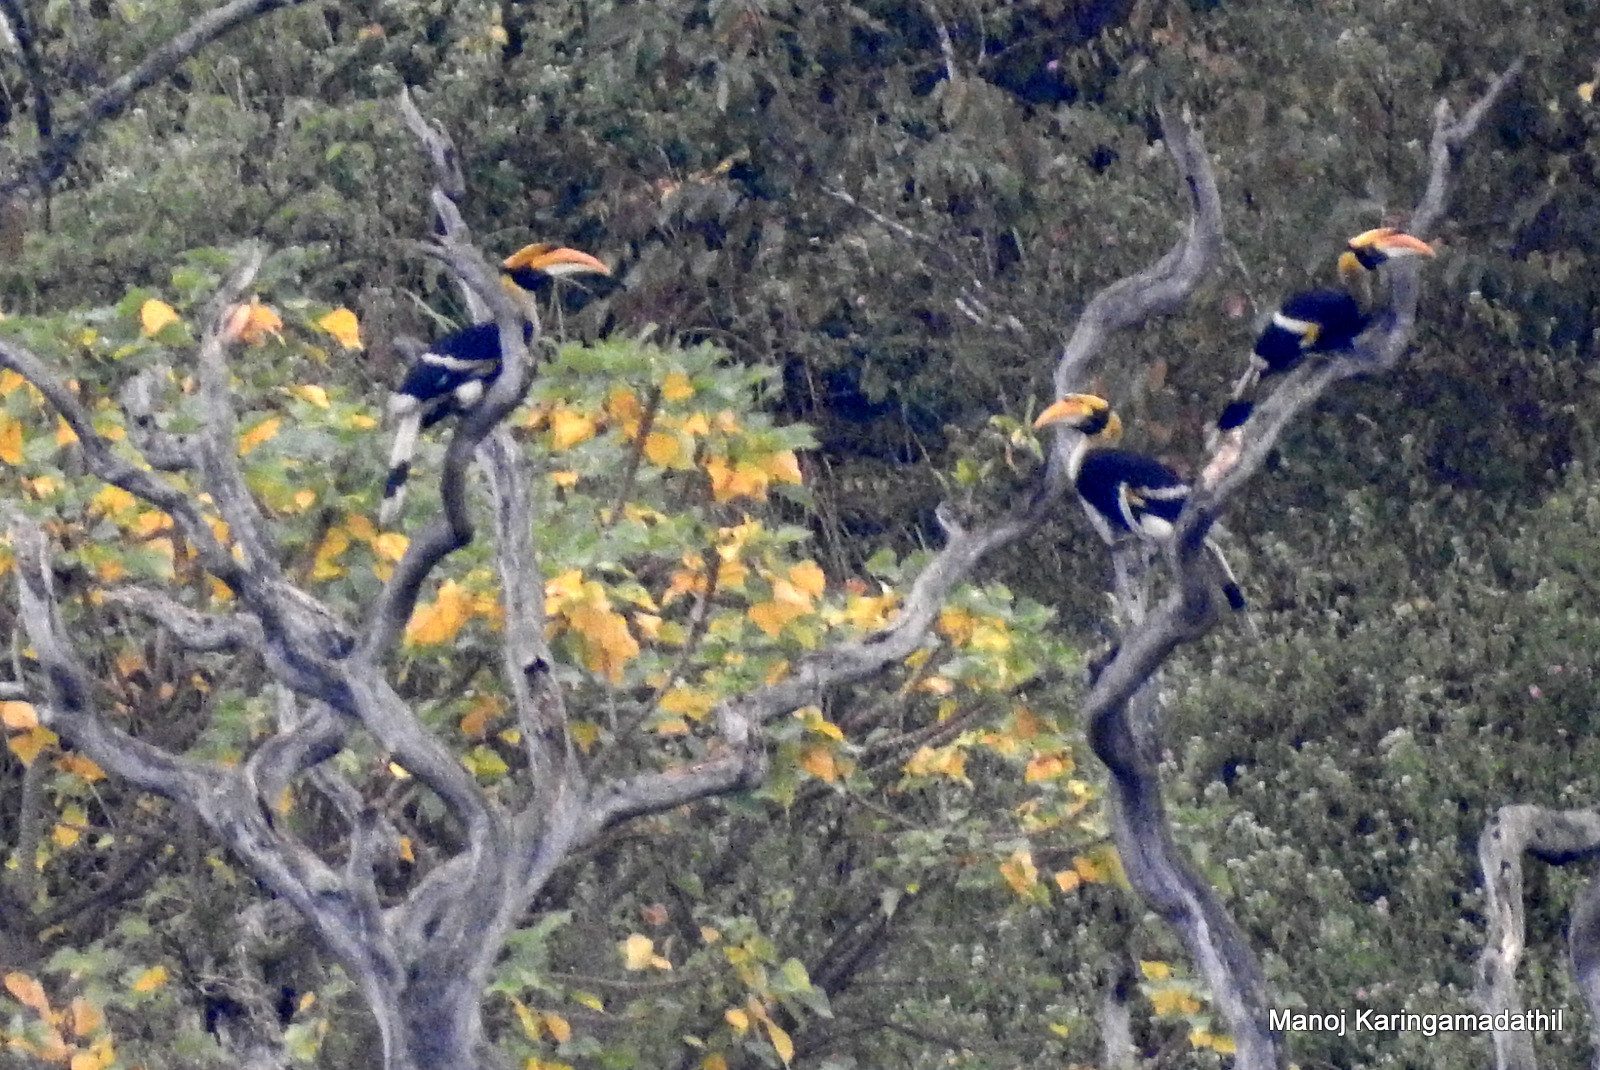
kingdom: Animalia
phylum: Chordata
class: Aves
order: Bucerotiformes
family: Bucerotidae
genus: Buceros
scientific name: Buceros bicornis
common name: Great hornbill
